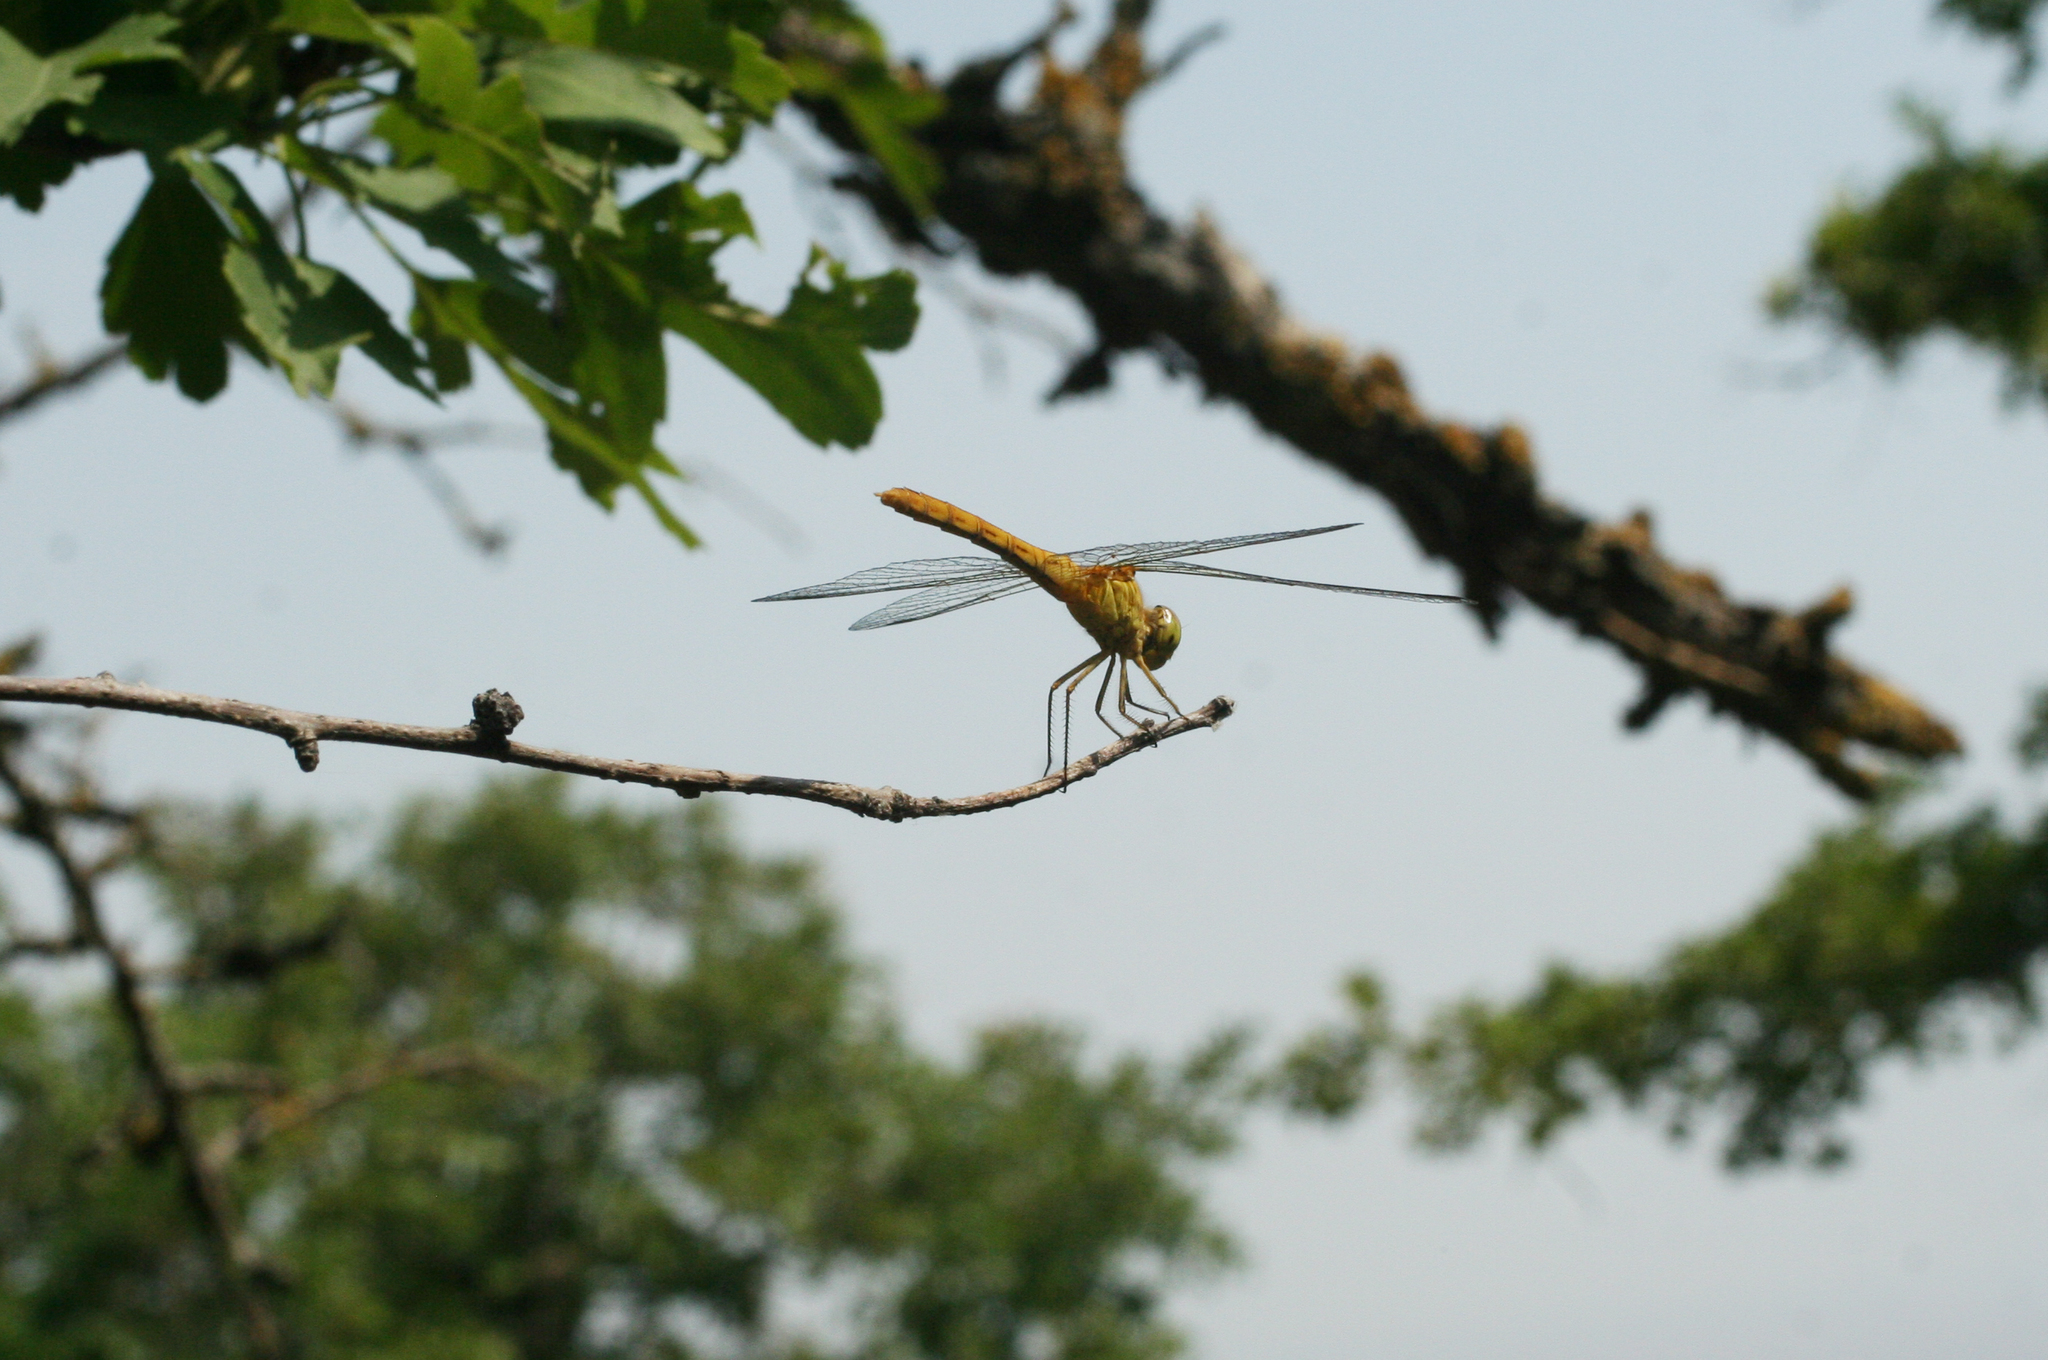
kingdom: Animalia
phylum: Arthropoda
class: Insecta
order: Odonata
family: Libellulidae
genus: Sympetrum
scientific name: Sympetrum meridionale
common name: Southern darter
